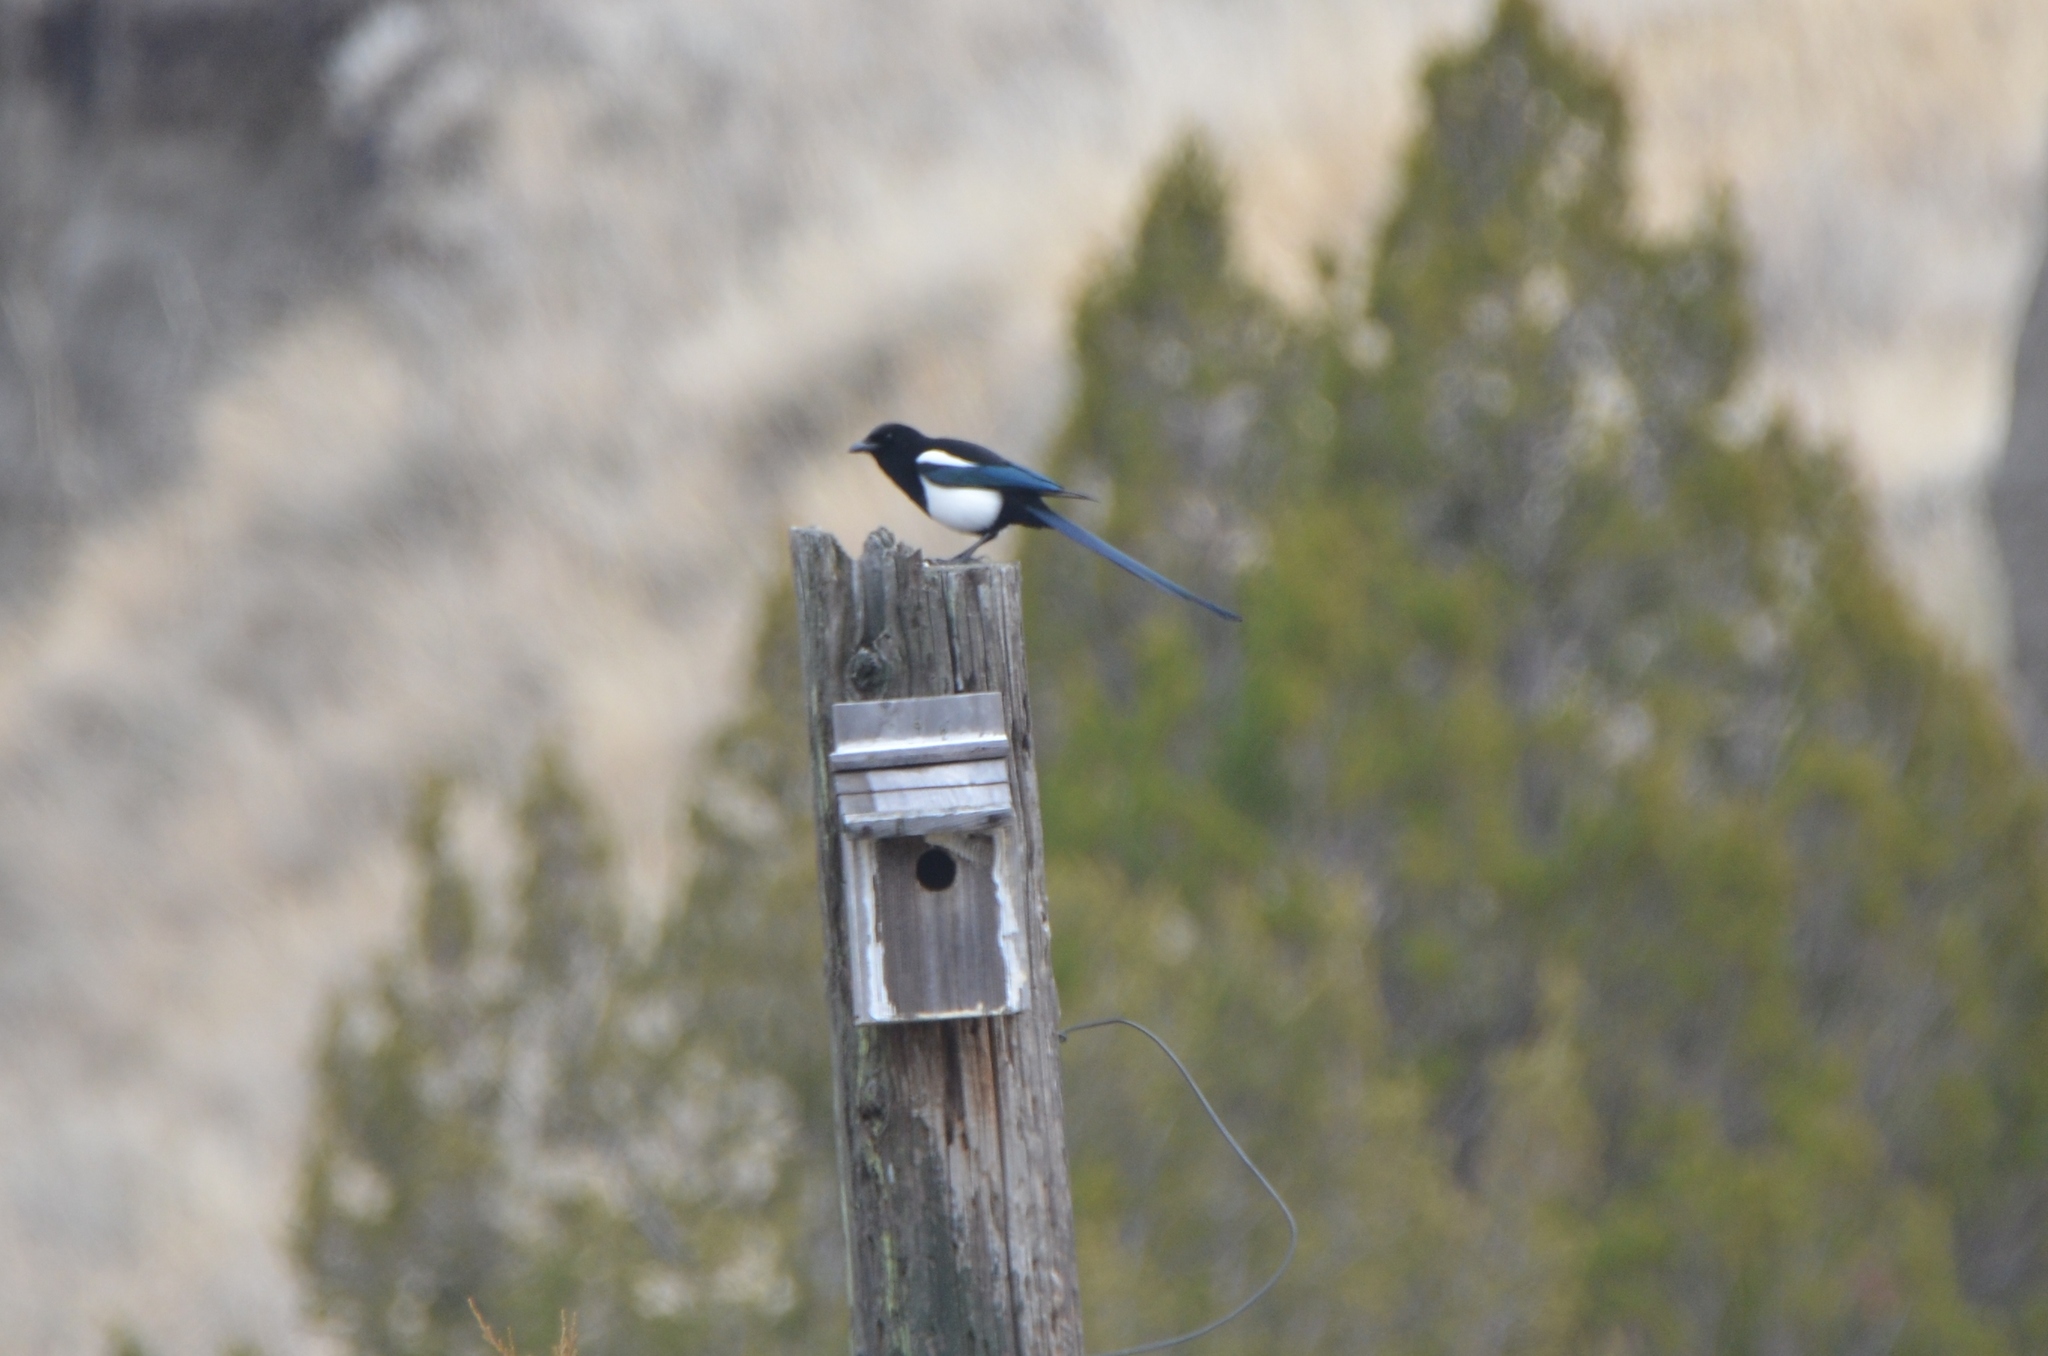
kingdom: Animalia
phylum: Chordata
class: Aves
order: Passeriformes
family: Corvidae
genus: Pica
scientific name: Pica hudsonia
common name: Black-billed magpie
